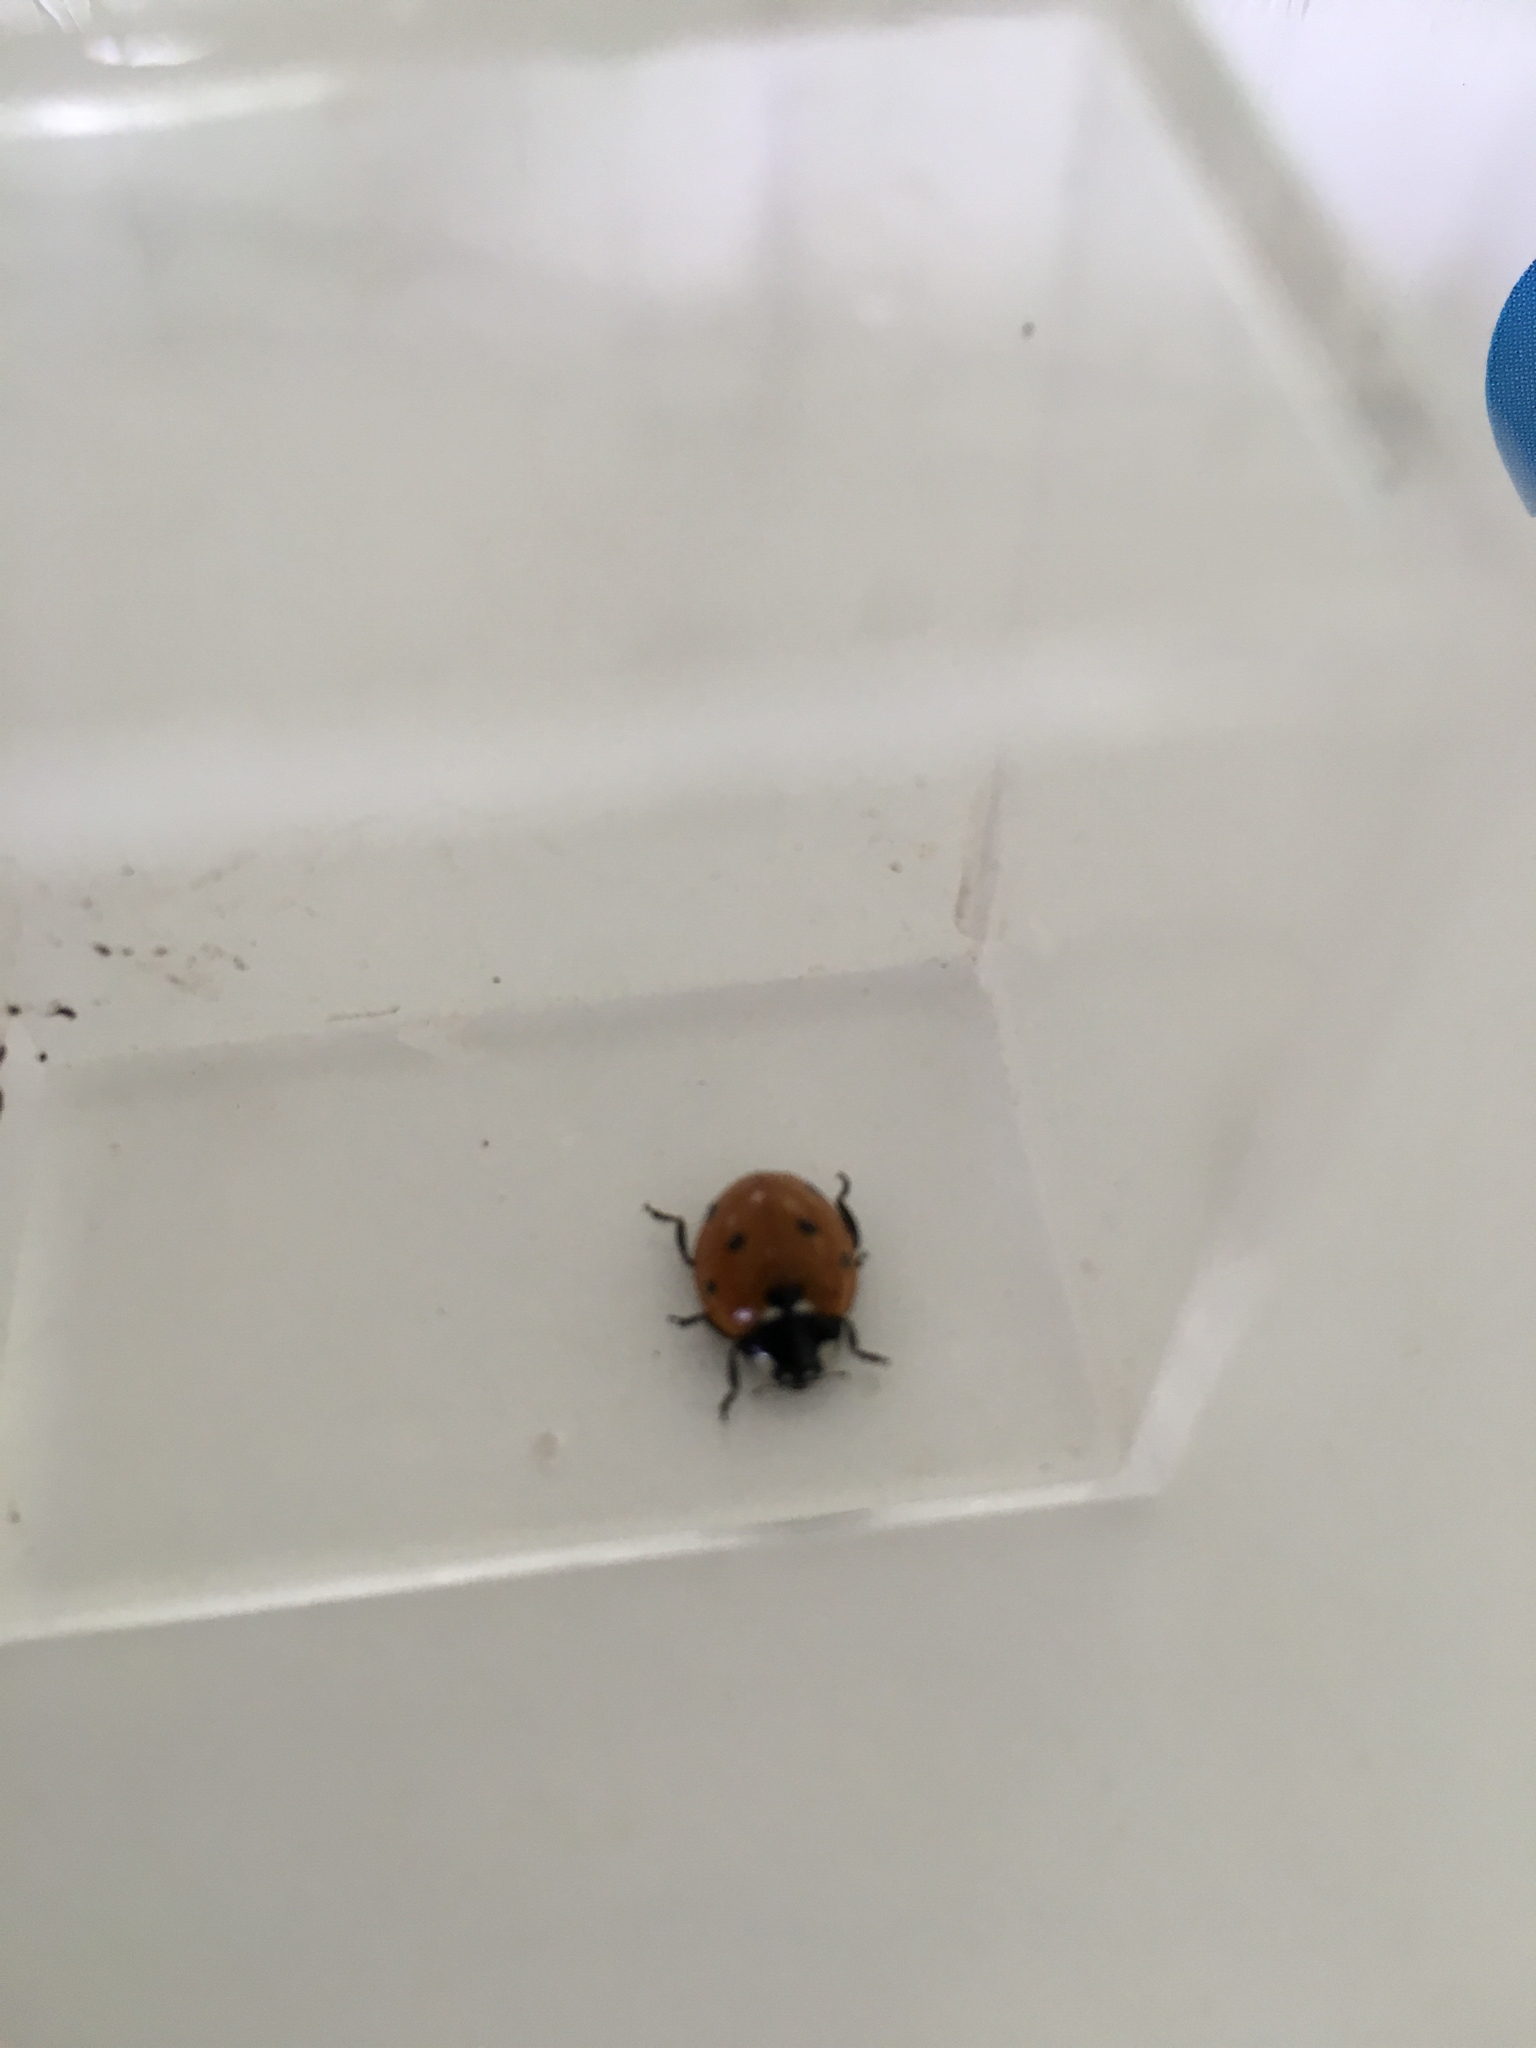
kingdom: Animalia
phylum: Arthropoda
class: Insecta
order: Coleoptera
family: Coccinellidae
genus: Coccinella
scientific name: Coccinella septempunctata
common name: Sevenspotted lady beetle
